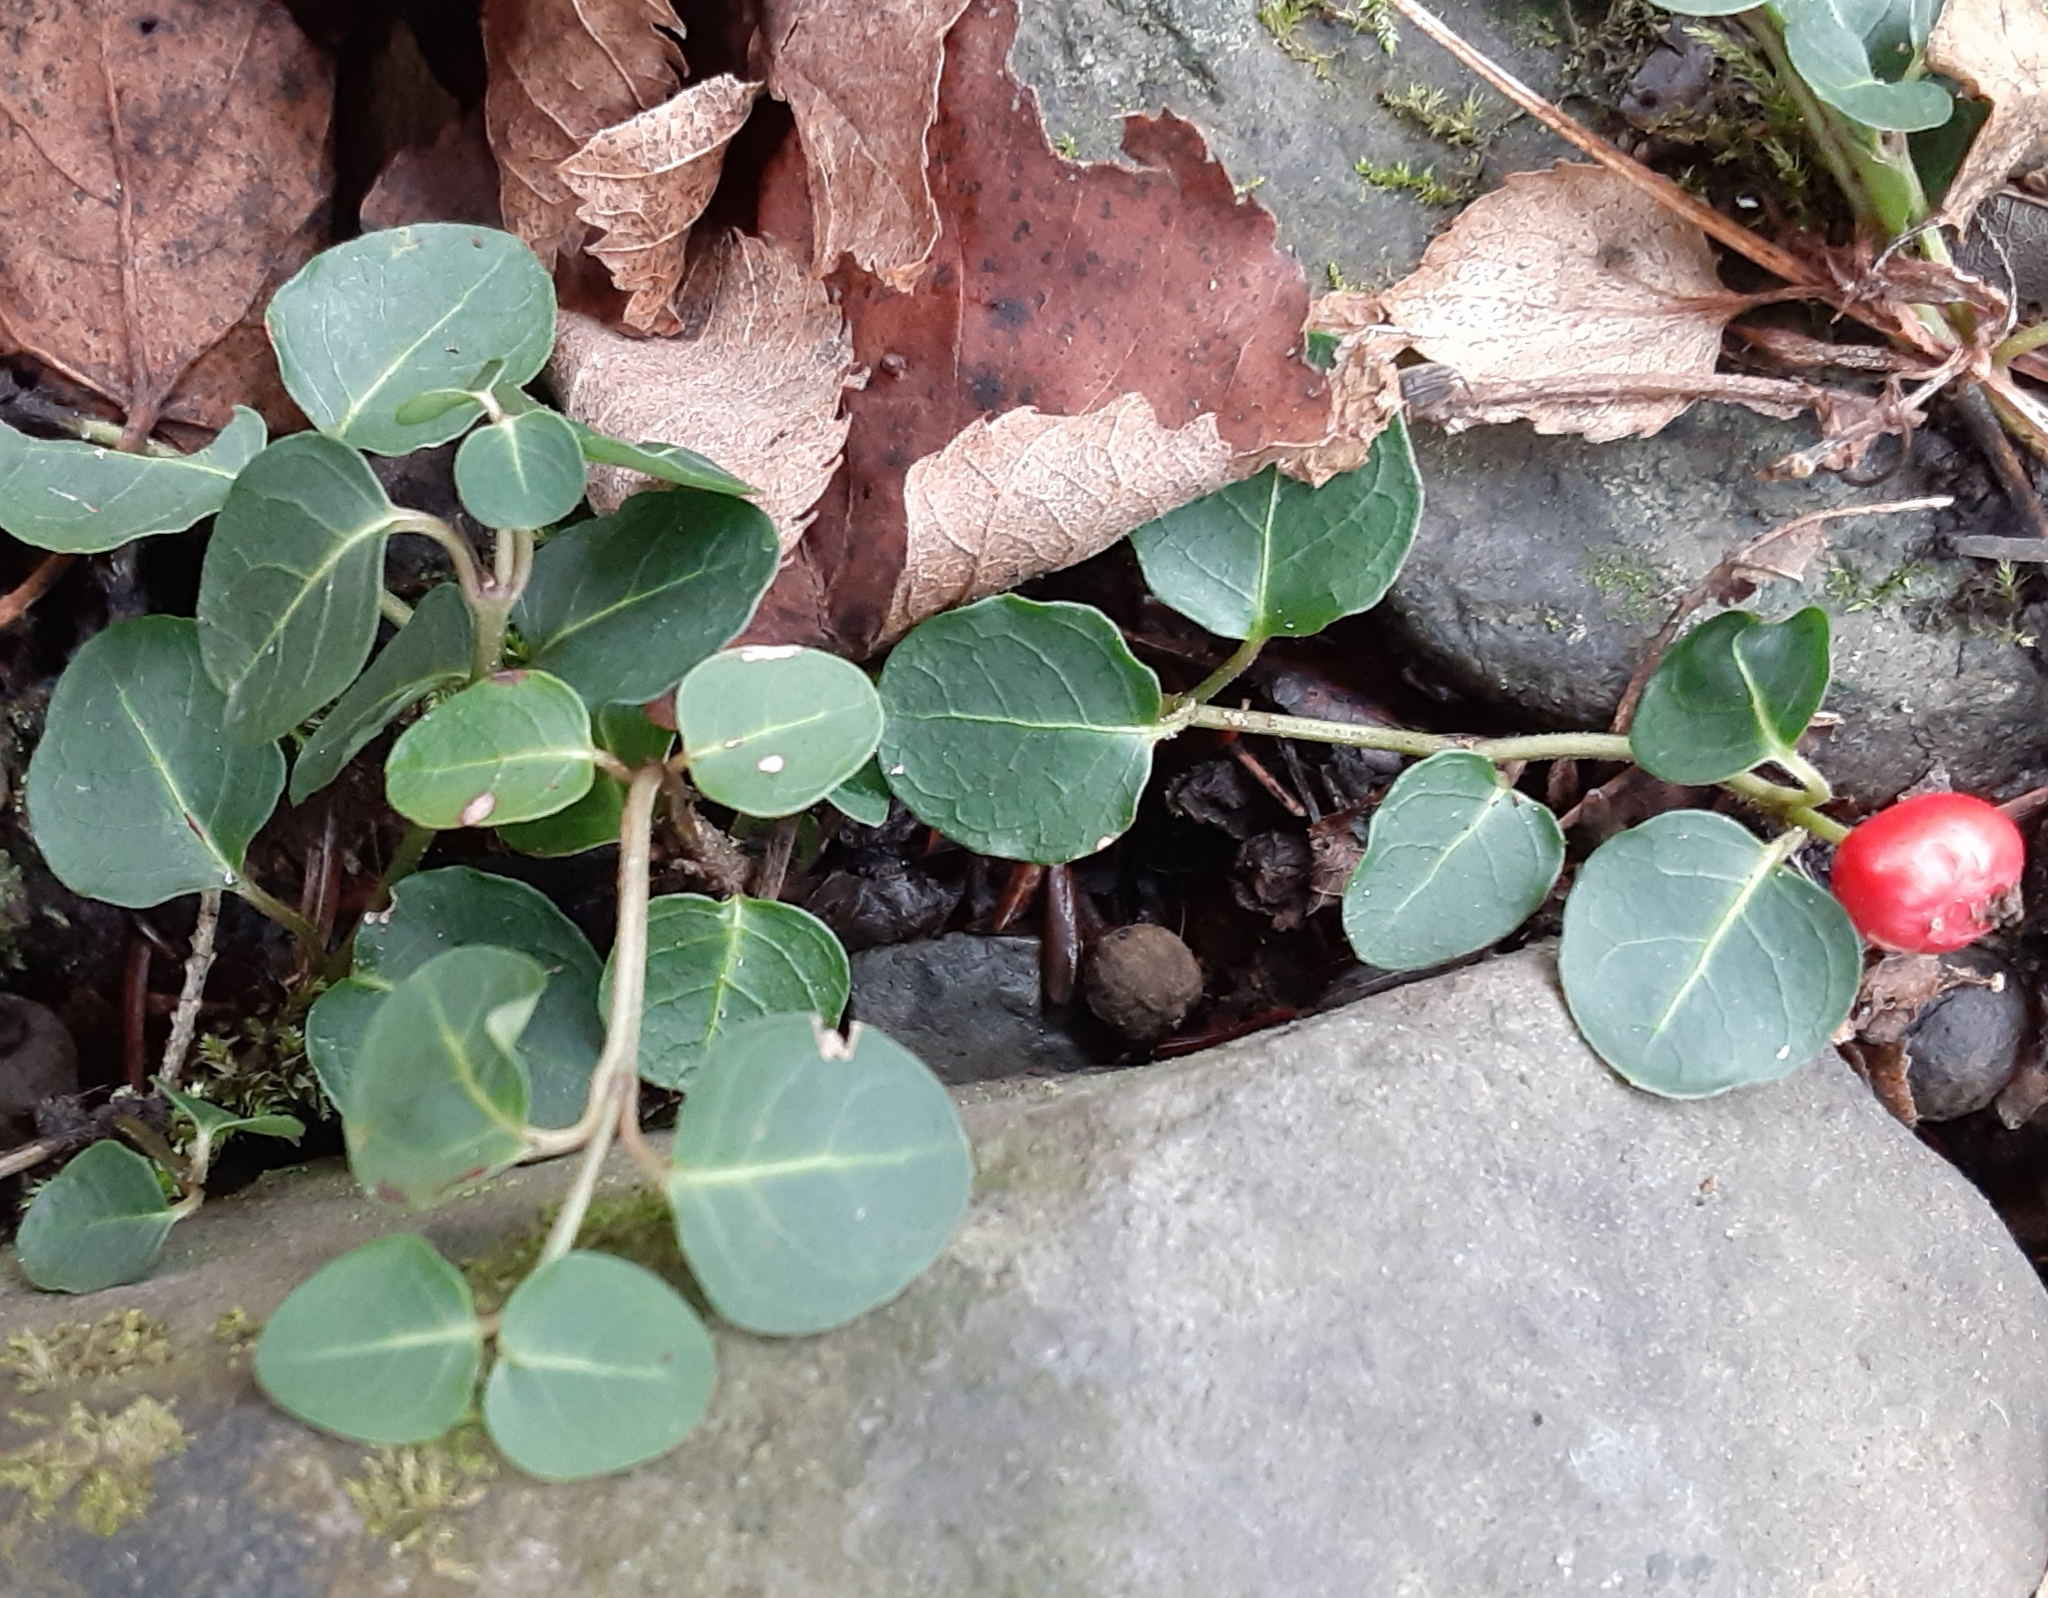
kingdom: Plantae
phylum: Tracheophyta
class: Magnoliopsida
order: Gentianales
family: Rubiaceae
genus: Mitchella
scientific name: Mitchella repens
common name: Partridge-berry
